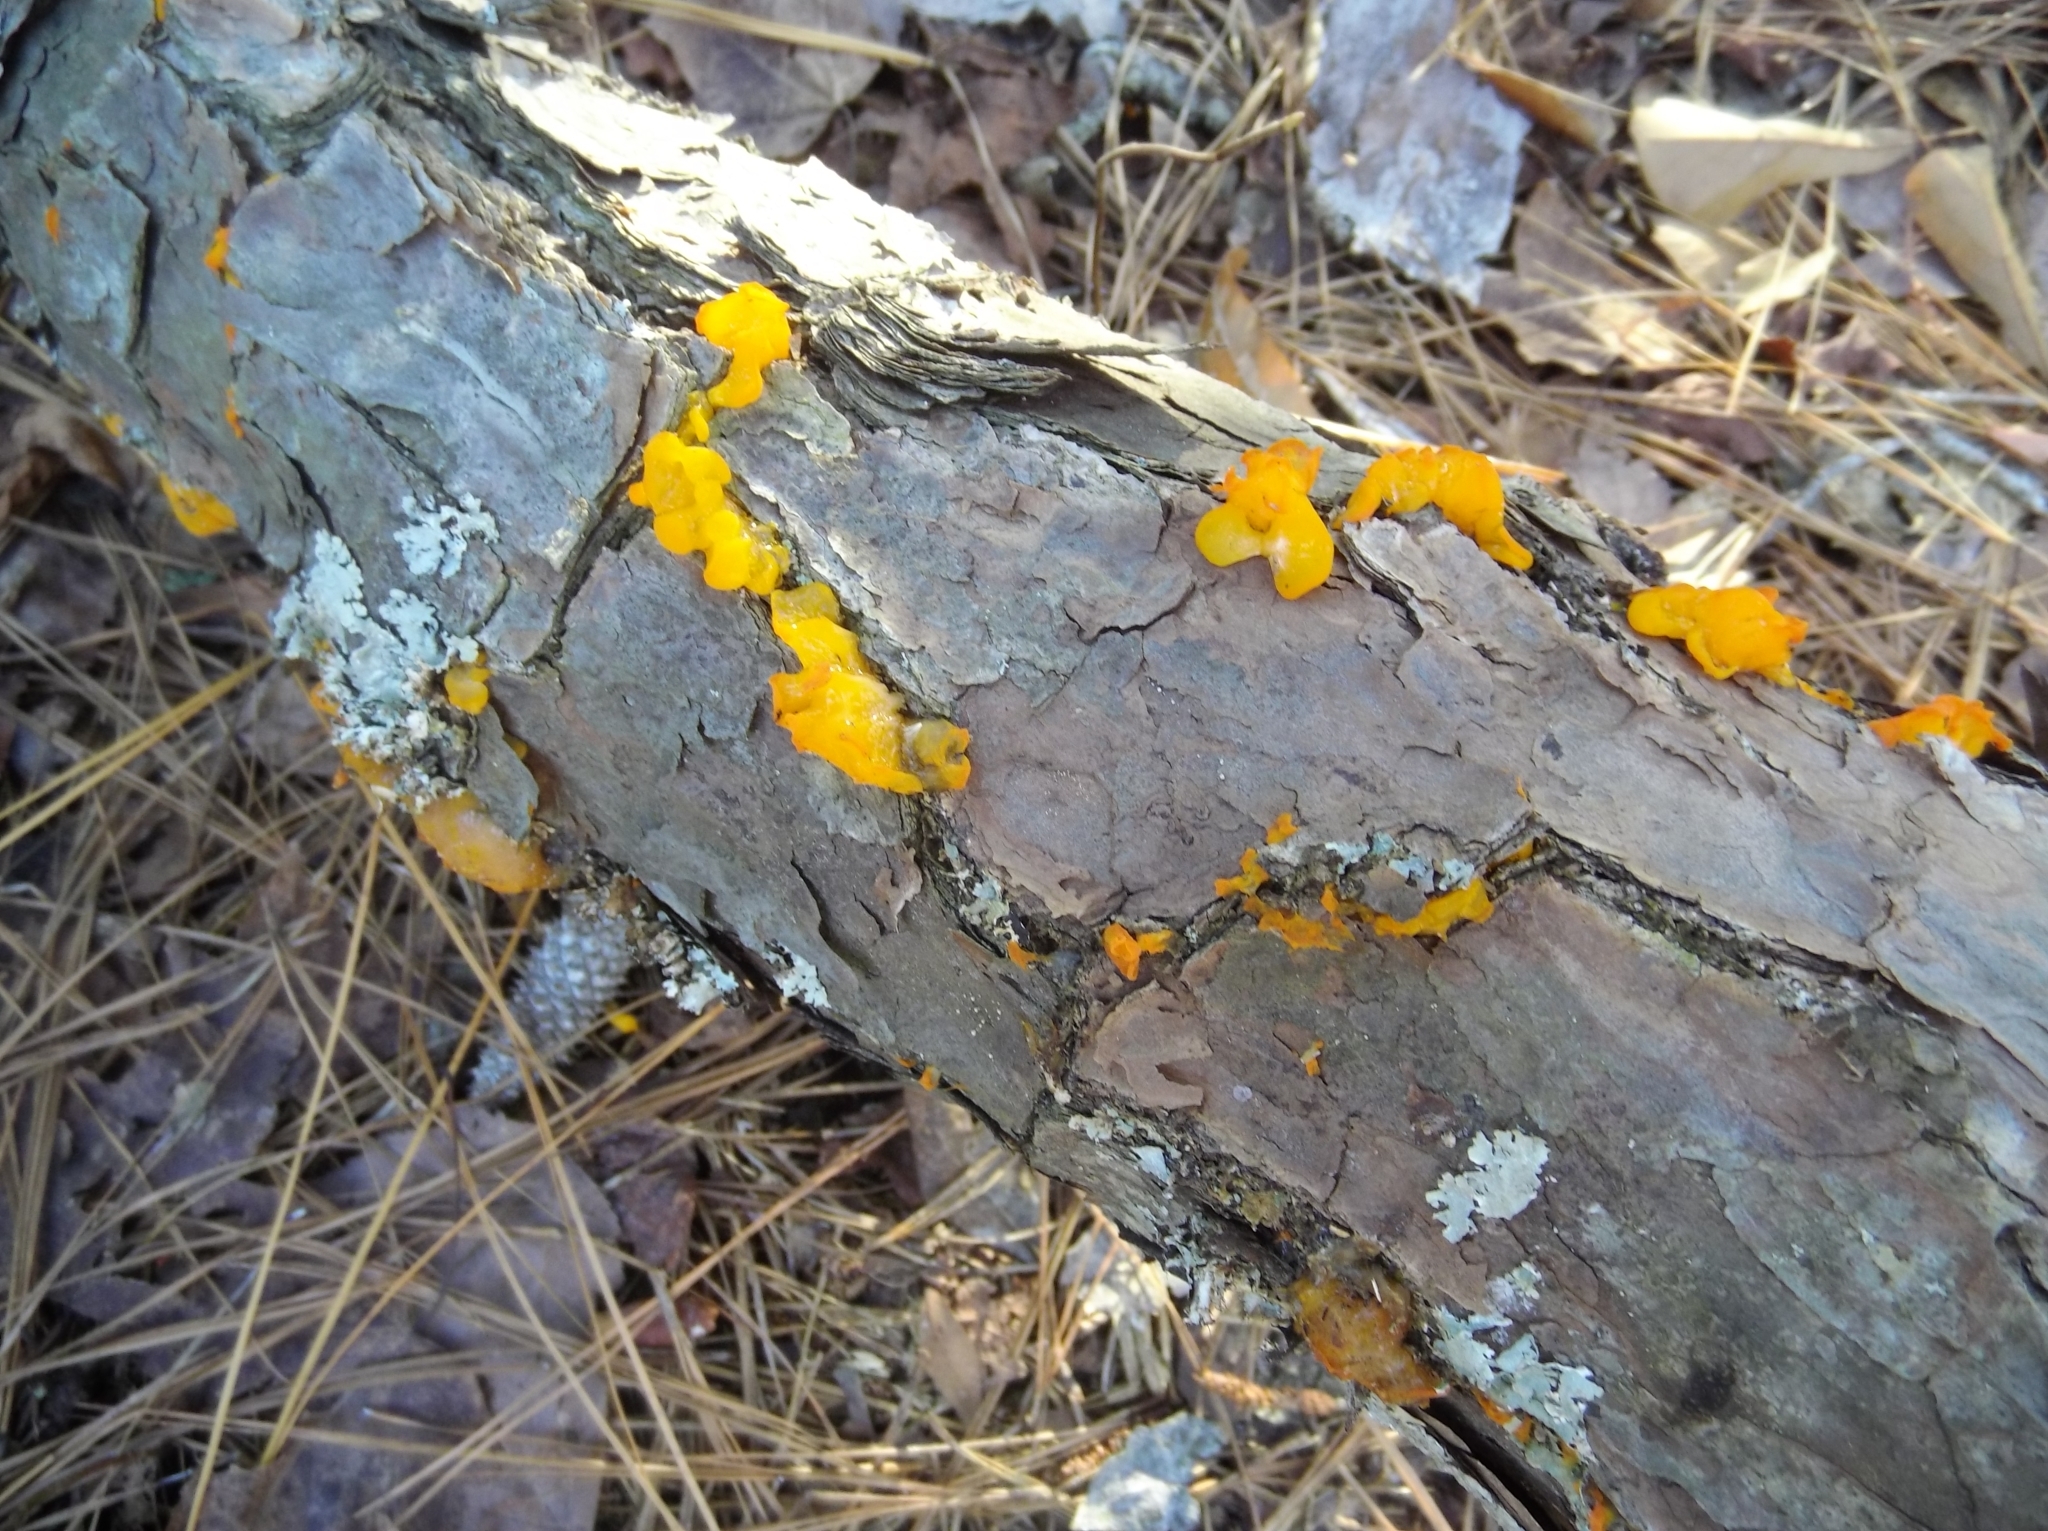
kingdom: Fungi
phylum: Basidiomycota
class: Dacrymycetes
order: Dacrymycetales
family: Dacrymycetaceae
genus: Dacrymyces
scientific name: Dacrymyces chrysospermus
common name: Orange jelly spot
